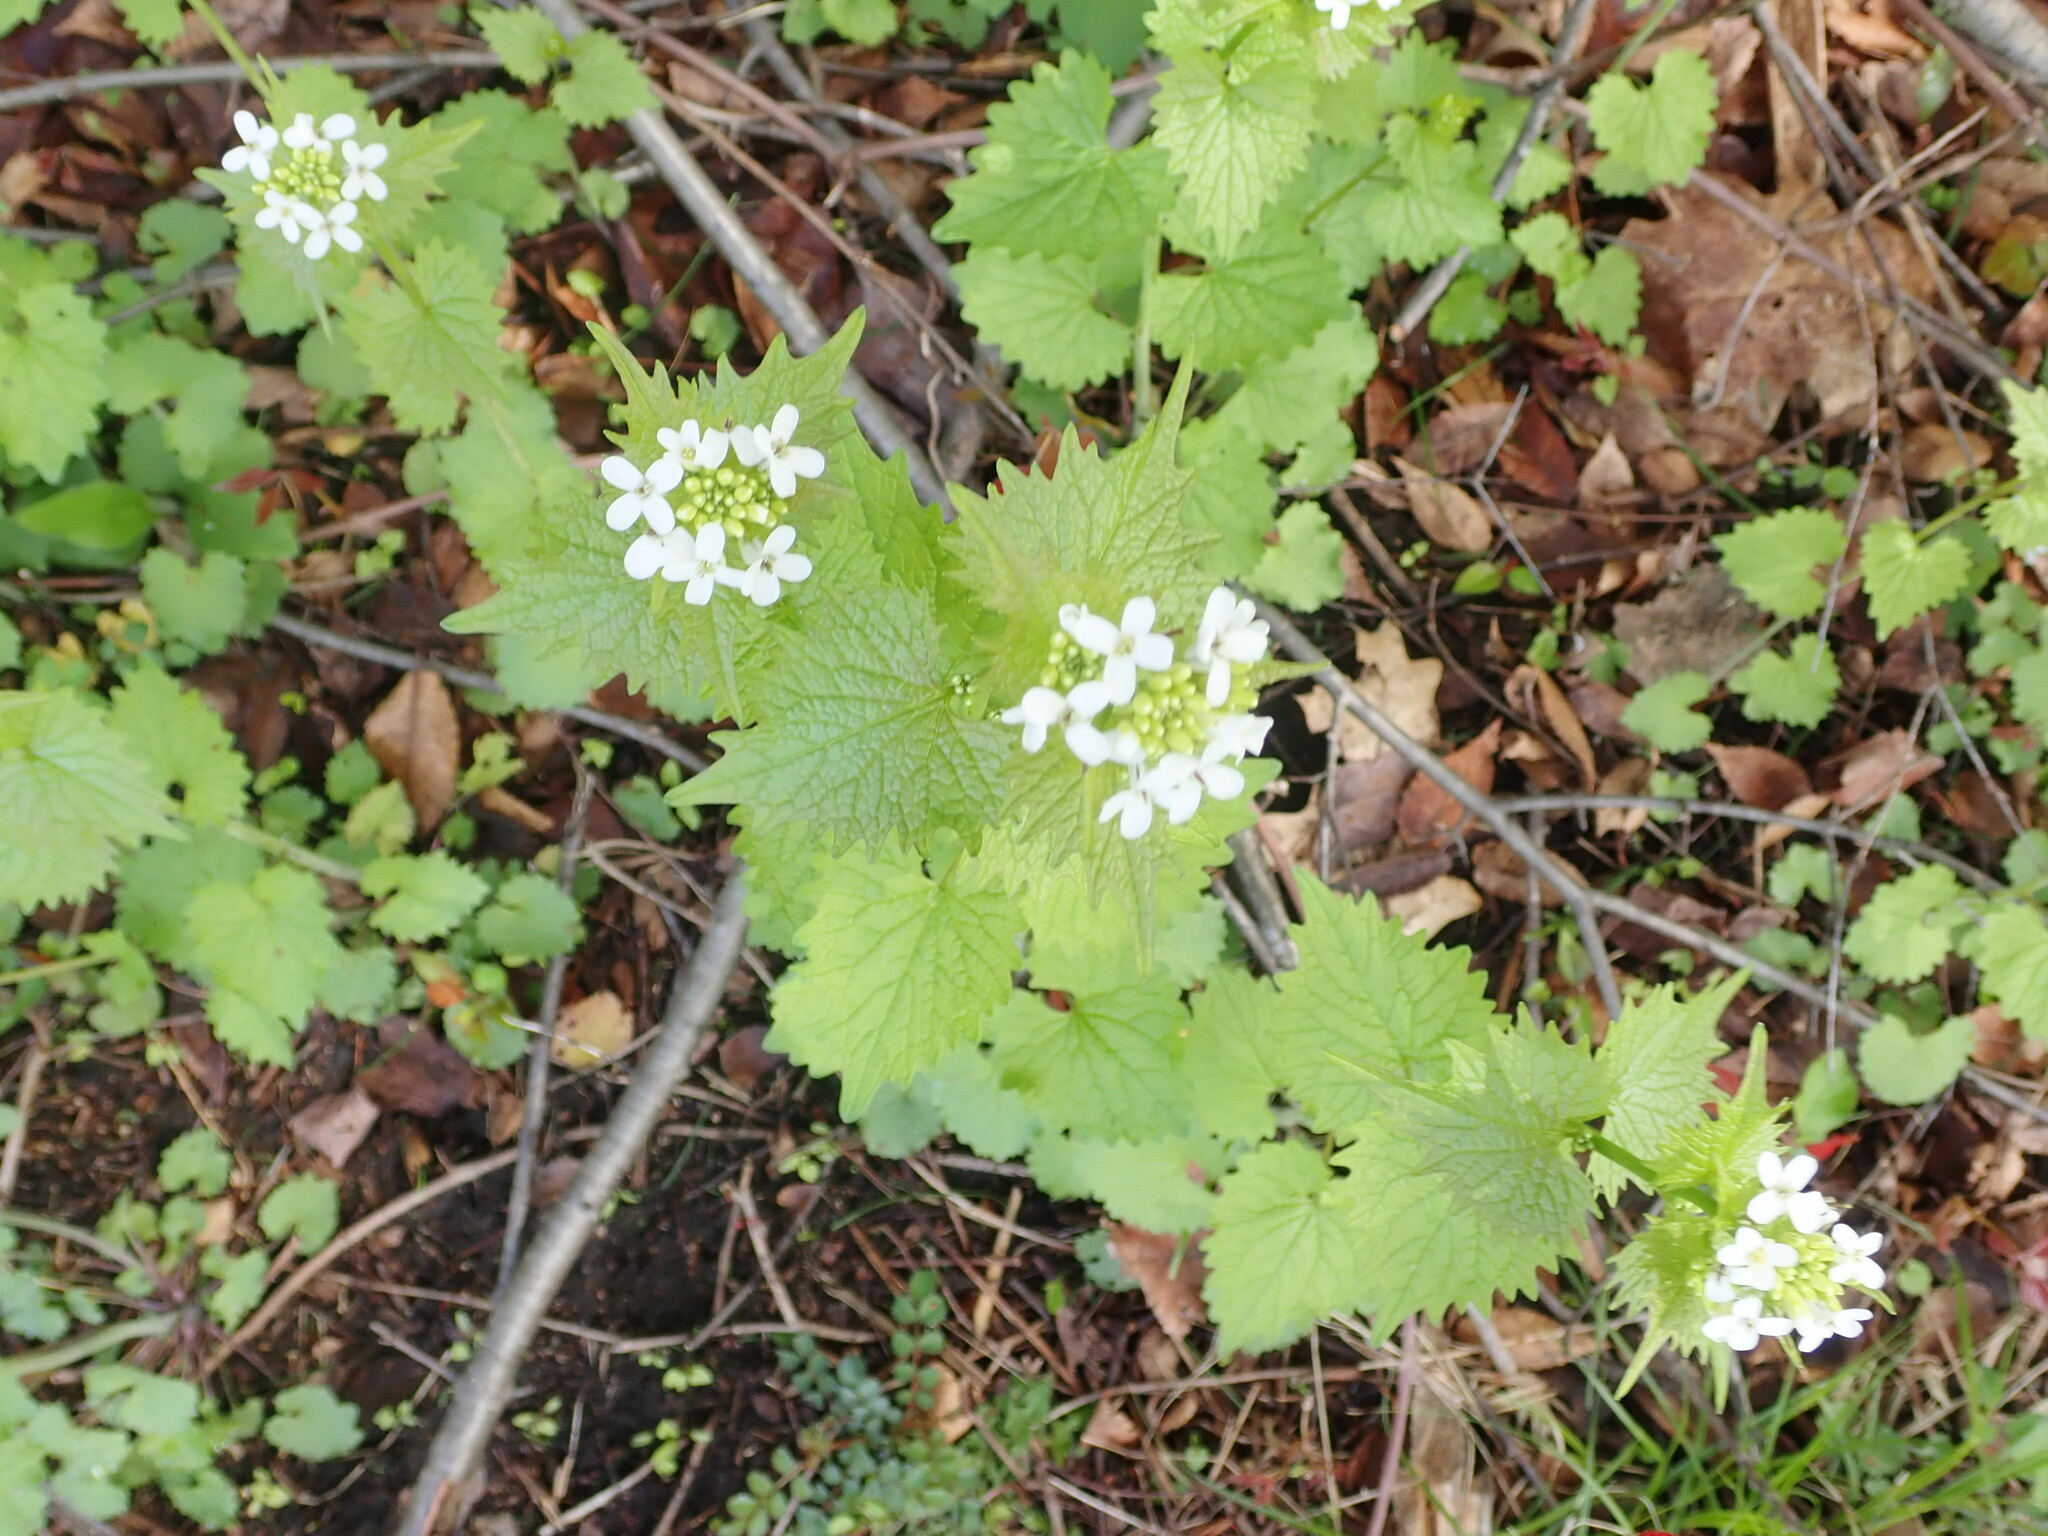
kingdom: Plantae
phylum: Tracheophyta
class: Magnoliopsida
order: Brassicales
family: Brassicaceae
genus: Alliaria
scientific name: Alliaria petiolata
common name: Garlic mustard
